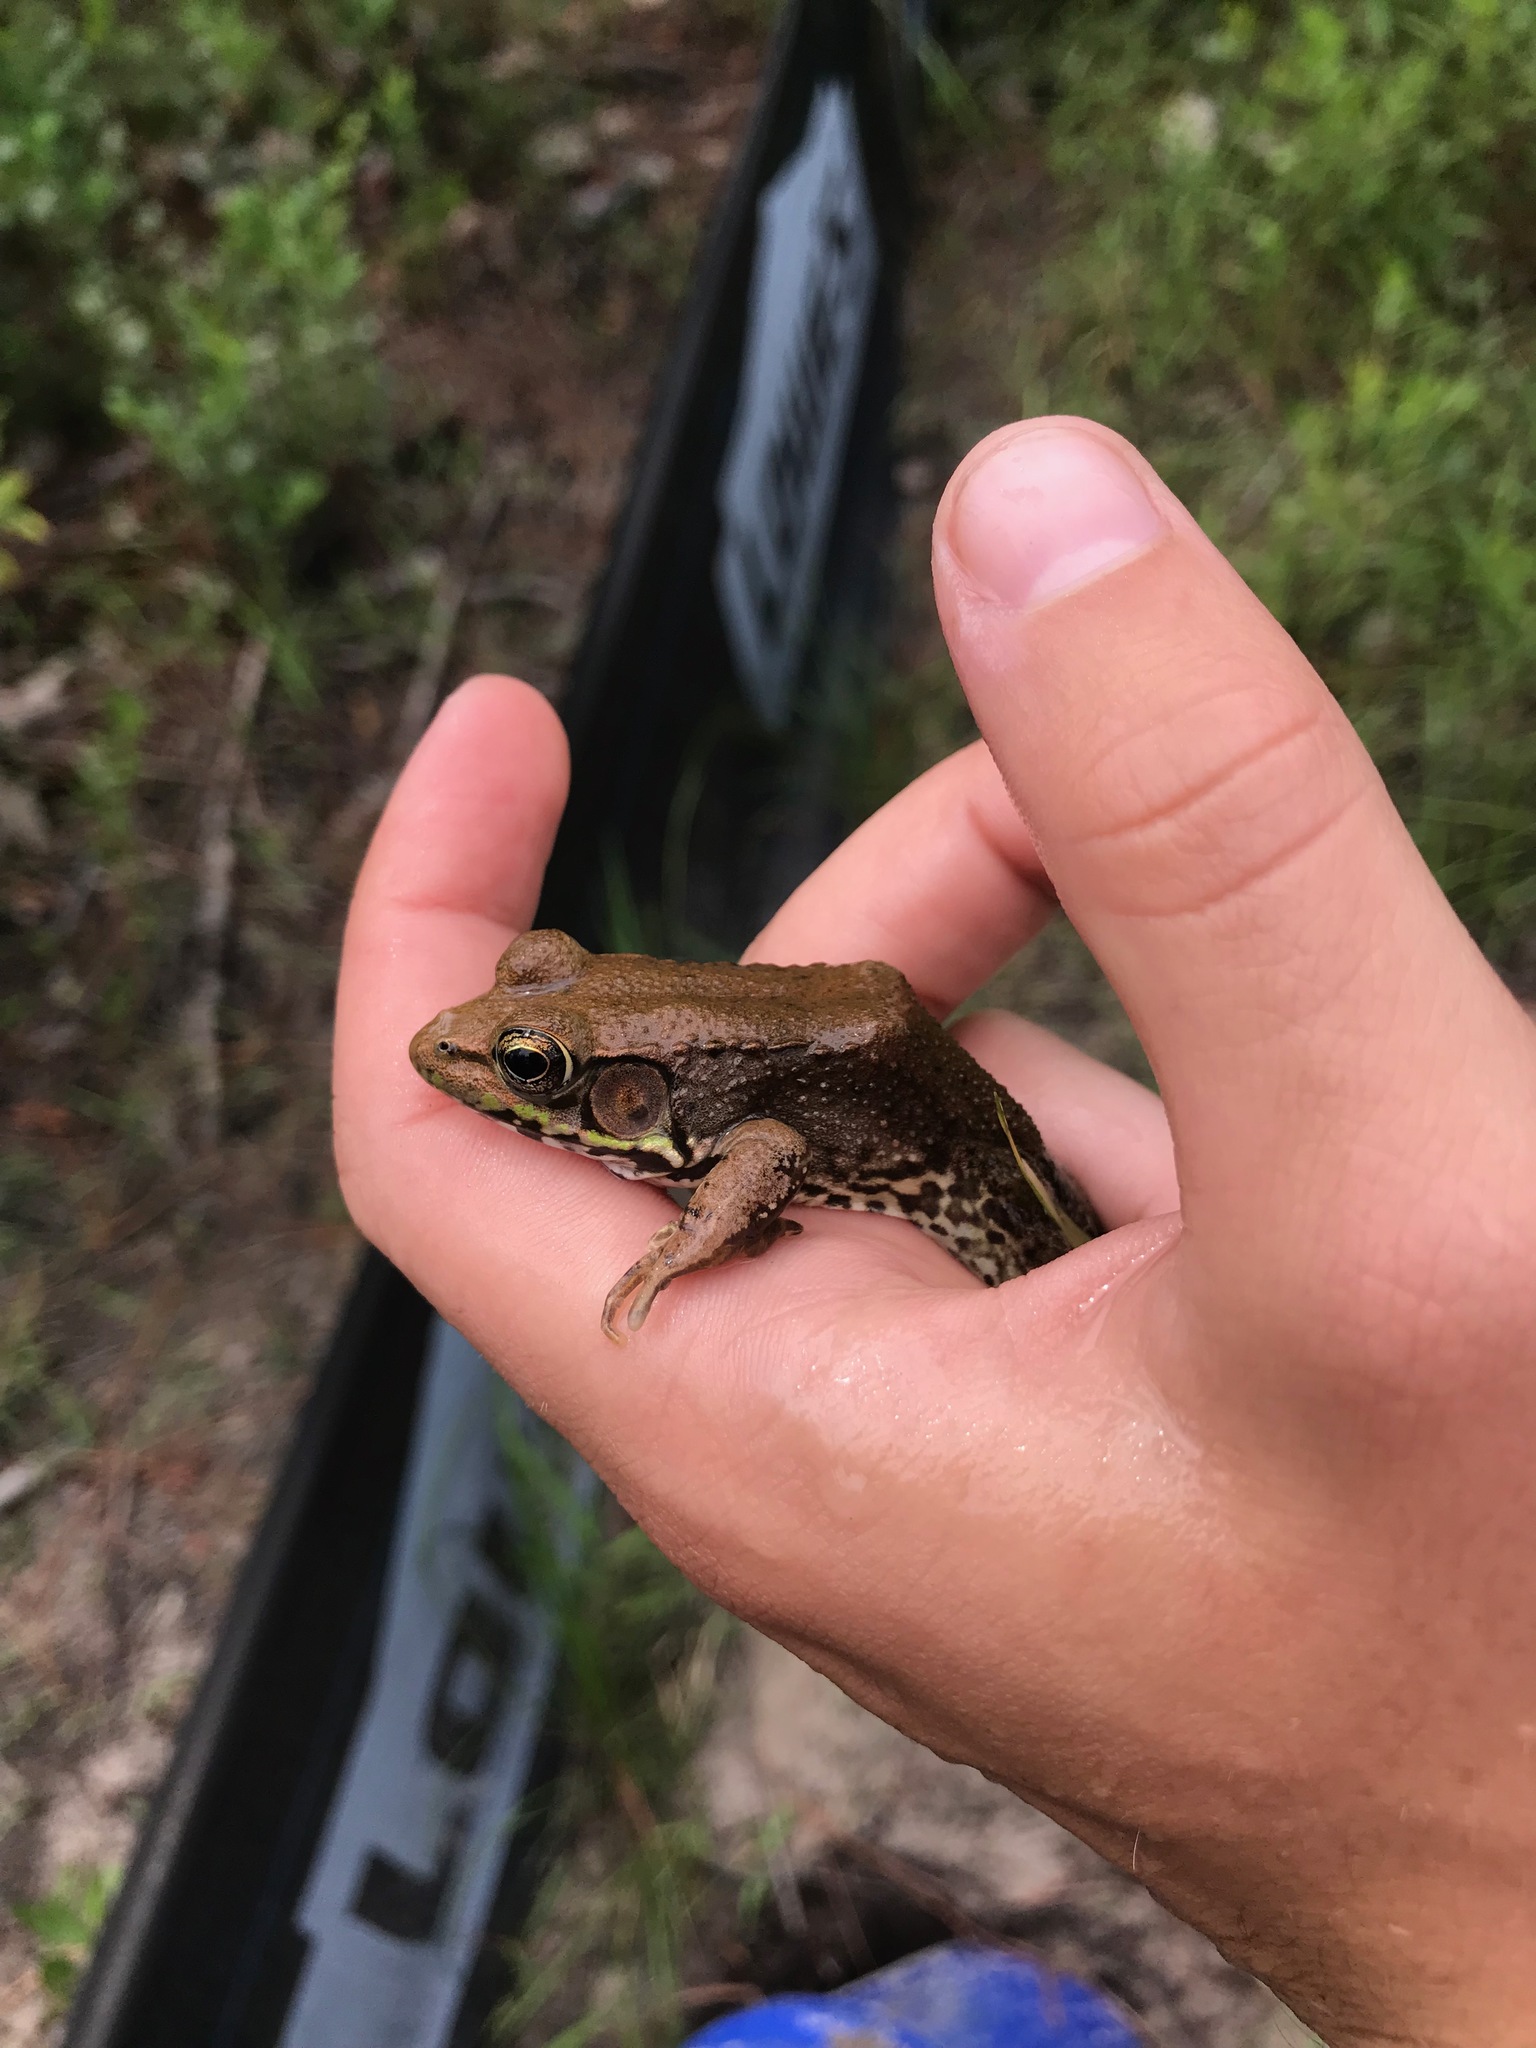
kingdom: Animalia
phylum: Chordata
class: Amphibia
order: Anura
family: Ranidae
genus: Lithobates
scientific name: Lithobates clamitans
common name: Green frog
